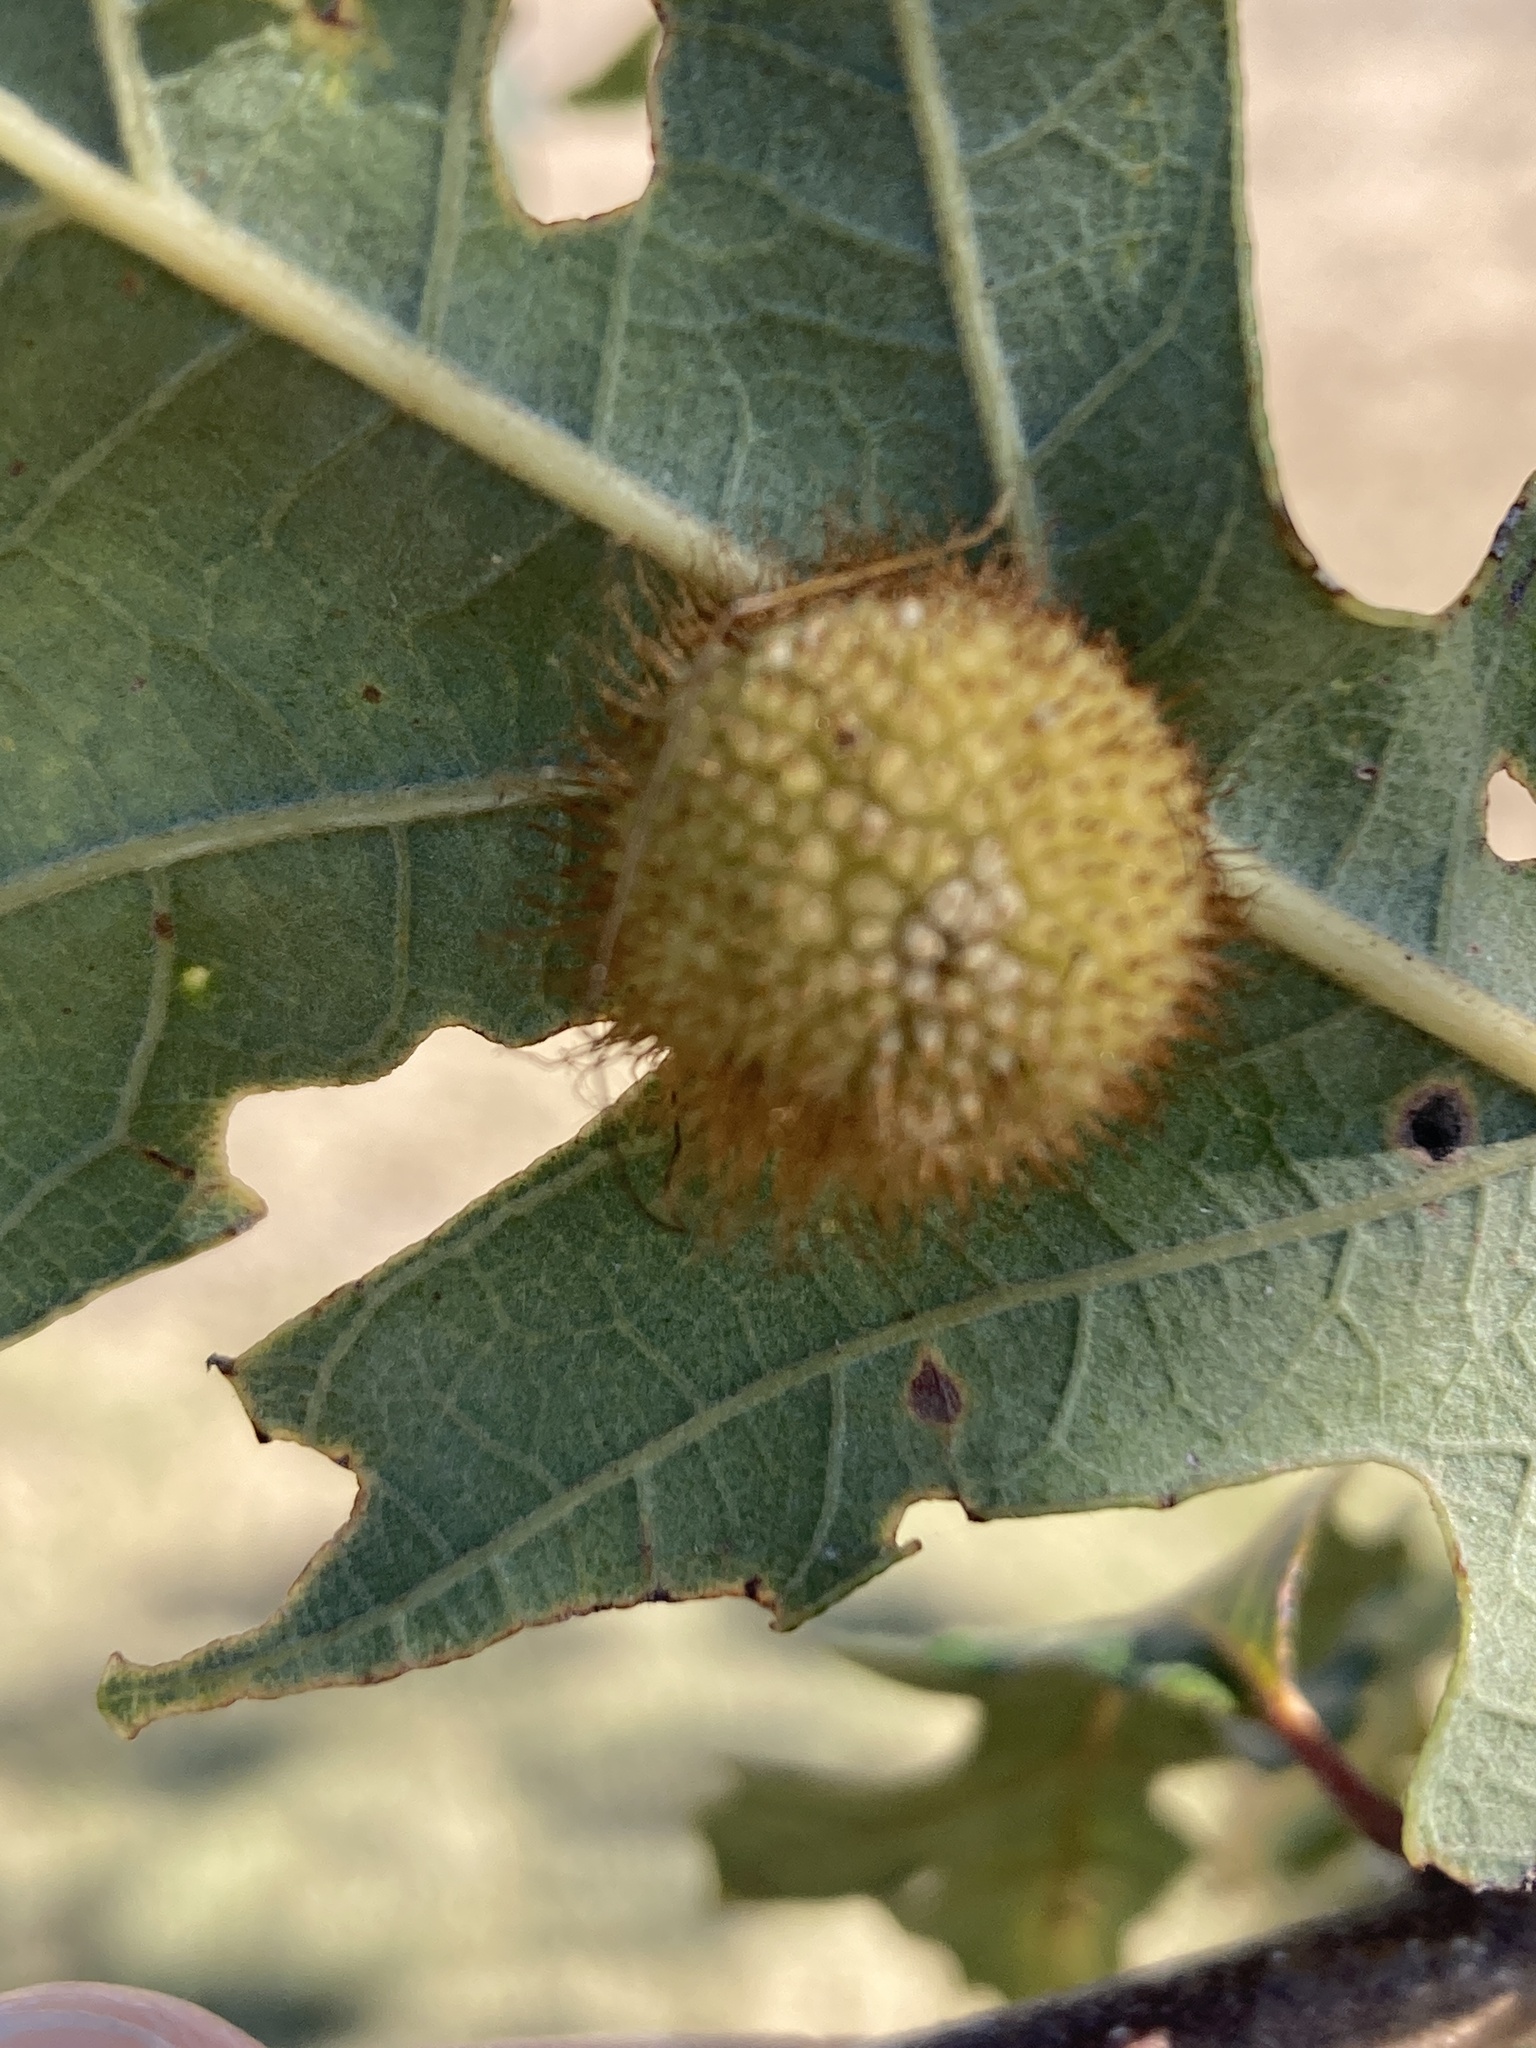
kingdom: Animalia
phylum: Arthropoda
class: Insecta
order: Hymenoptera
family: Cynipidae
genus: Acraspis
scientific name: Acraspis villosa
